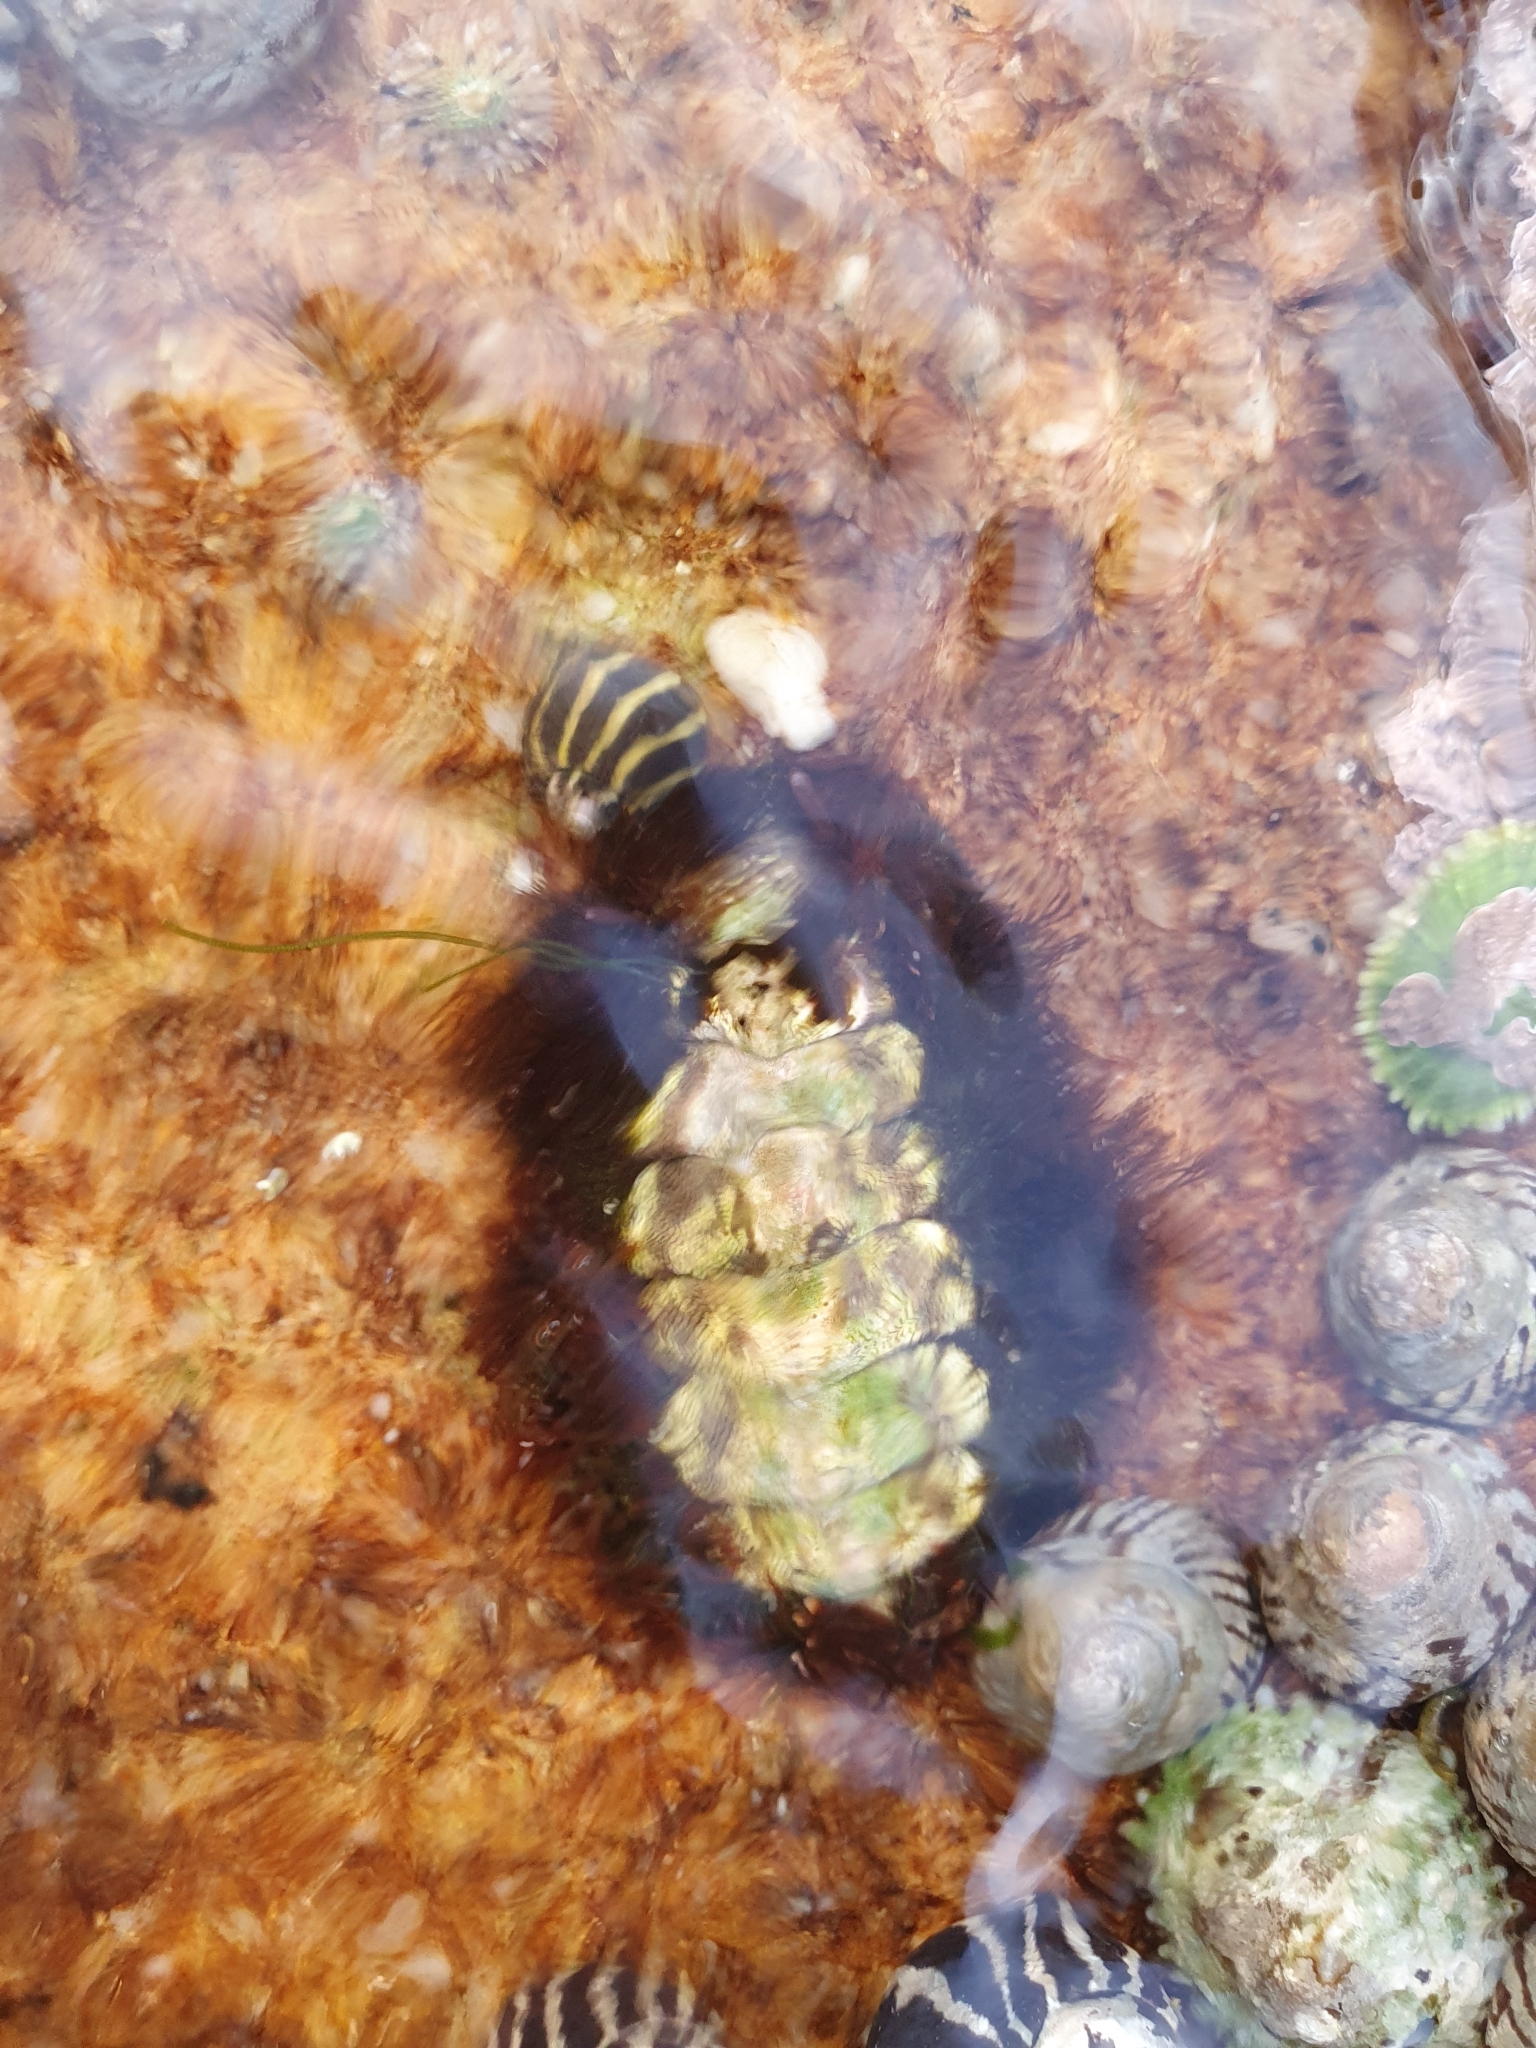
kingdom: Animalia
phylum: Mollusca
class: Polyplacophora
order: Chitonida
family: Mopaliidae
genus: Plaxiphora
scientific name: Plaxiphora albida
